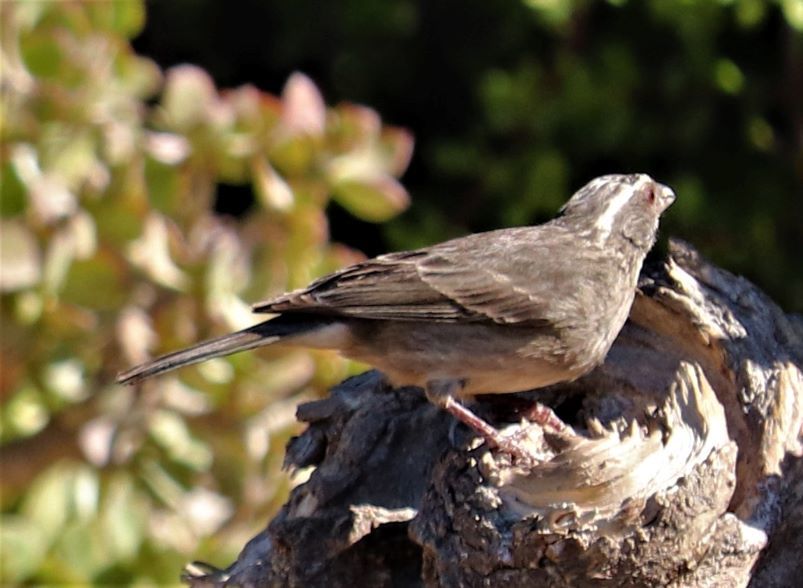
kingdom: Animalia
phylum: Chordata
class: Aves
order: Passeriformes
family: Fringillidae
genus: Crithagra
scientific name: Crithagra gularis
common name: Streaky-headed seedeater
